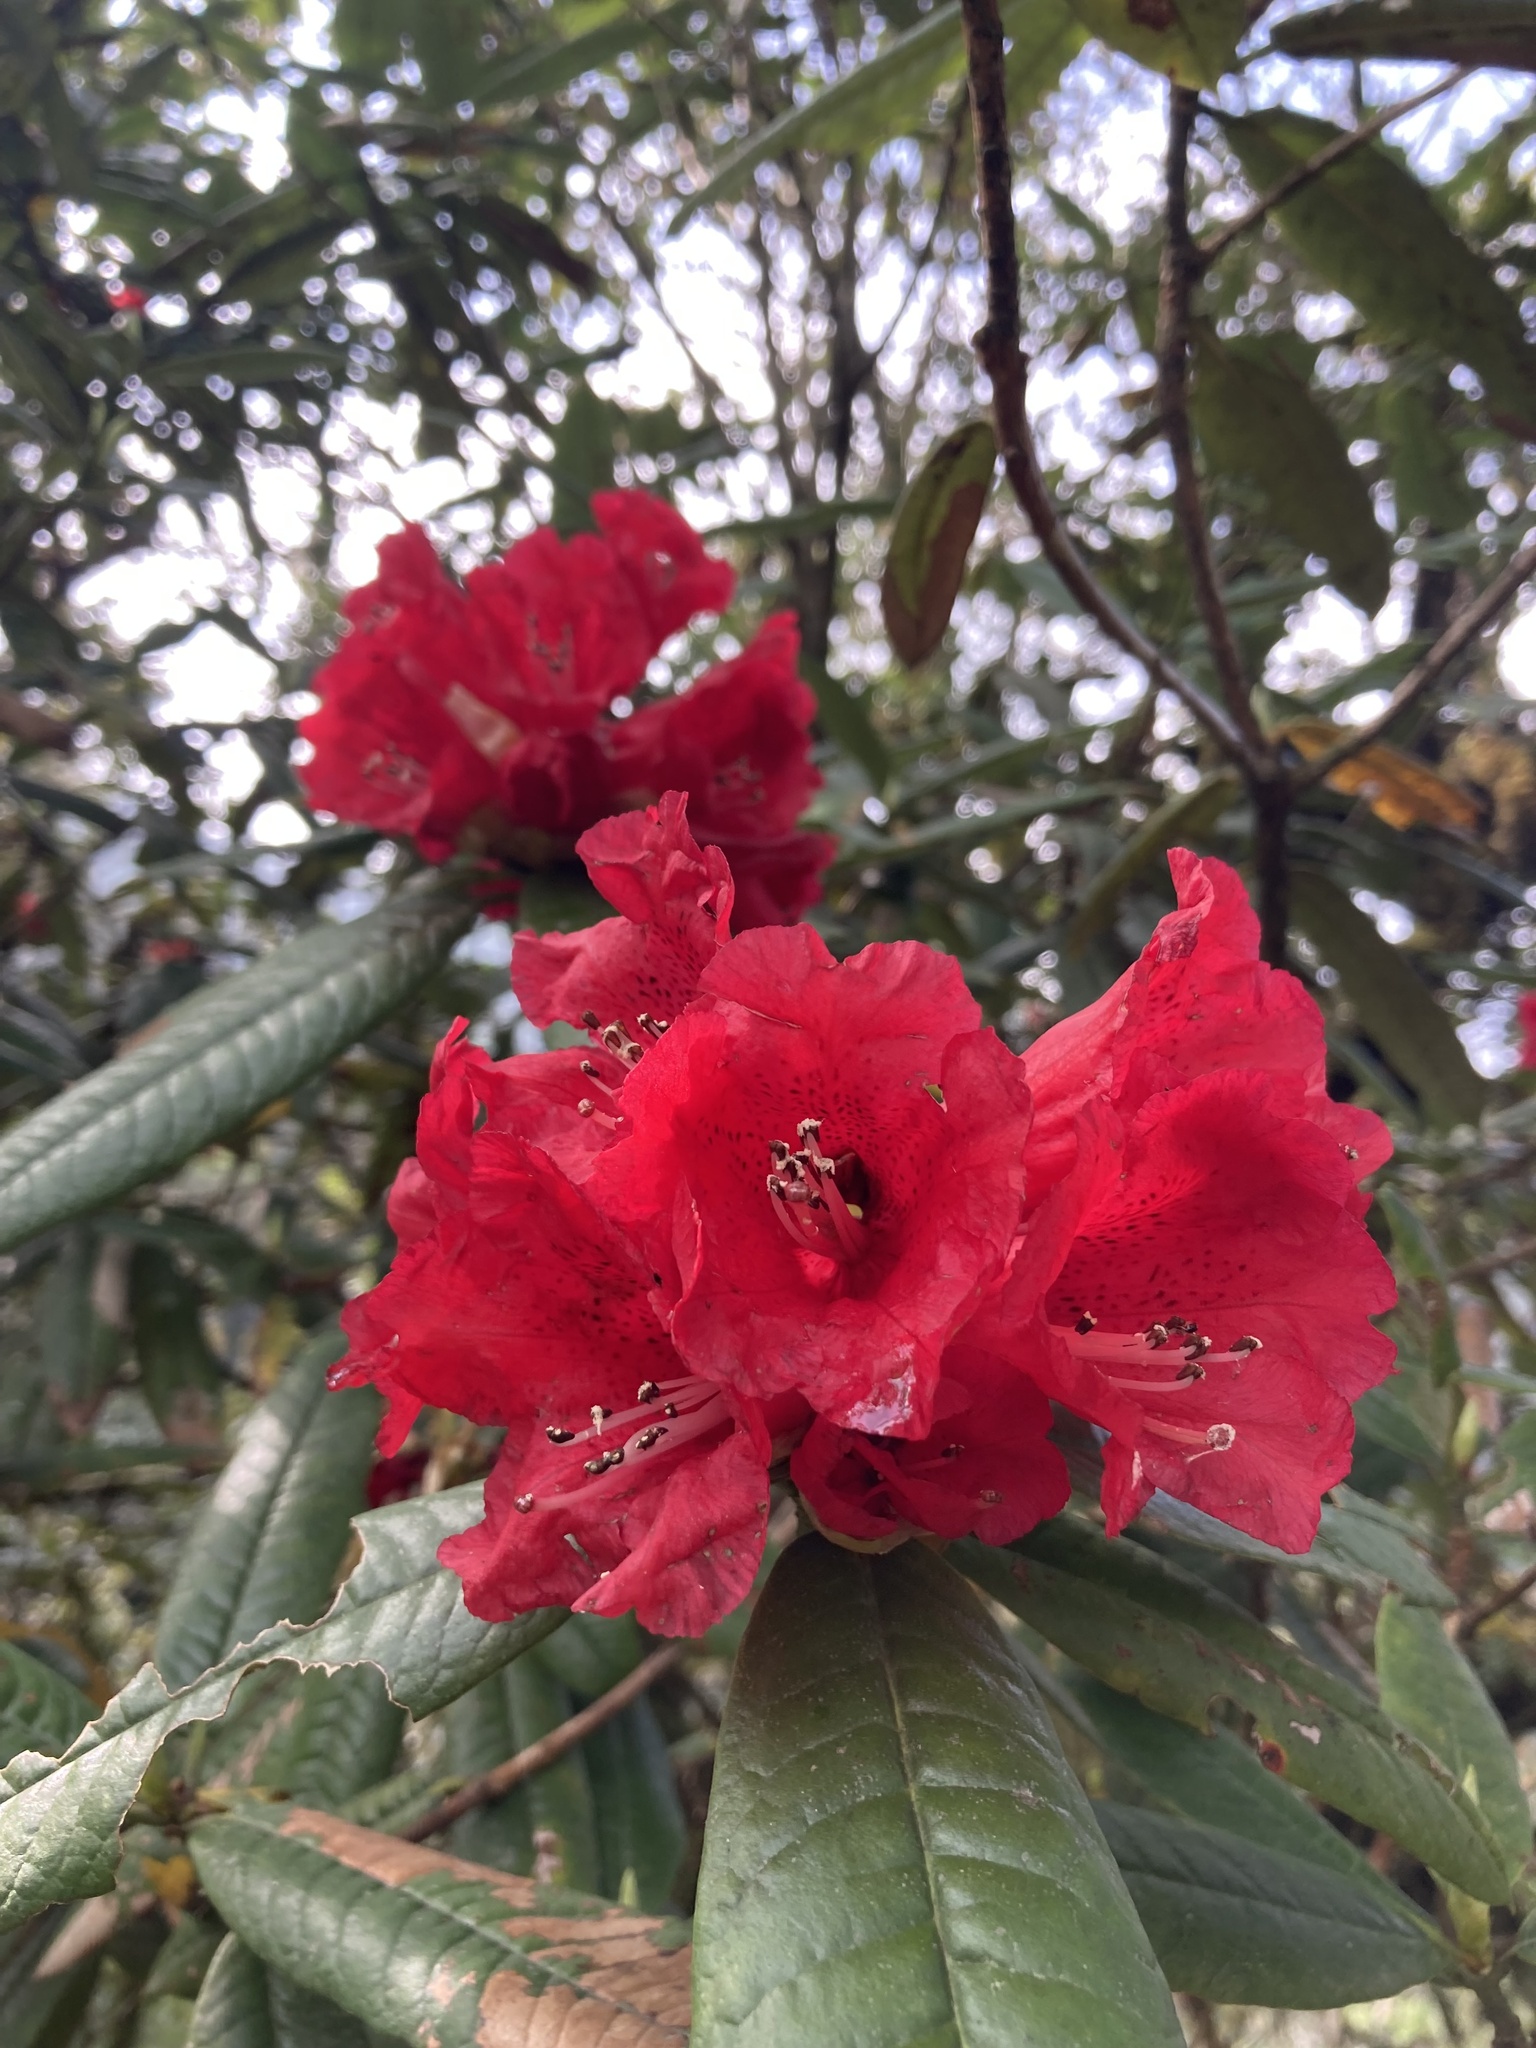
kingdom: Plantae
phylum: Tracheophyta
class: Magnoliopsida
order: Ericales
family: Ericaceae
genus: Rhododendron
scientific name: Rhododendron arboreum
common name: Tree rhododendron
